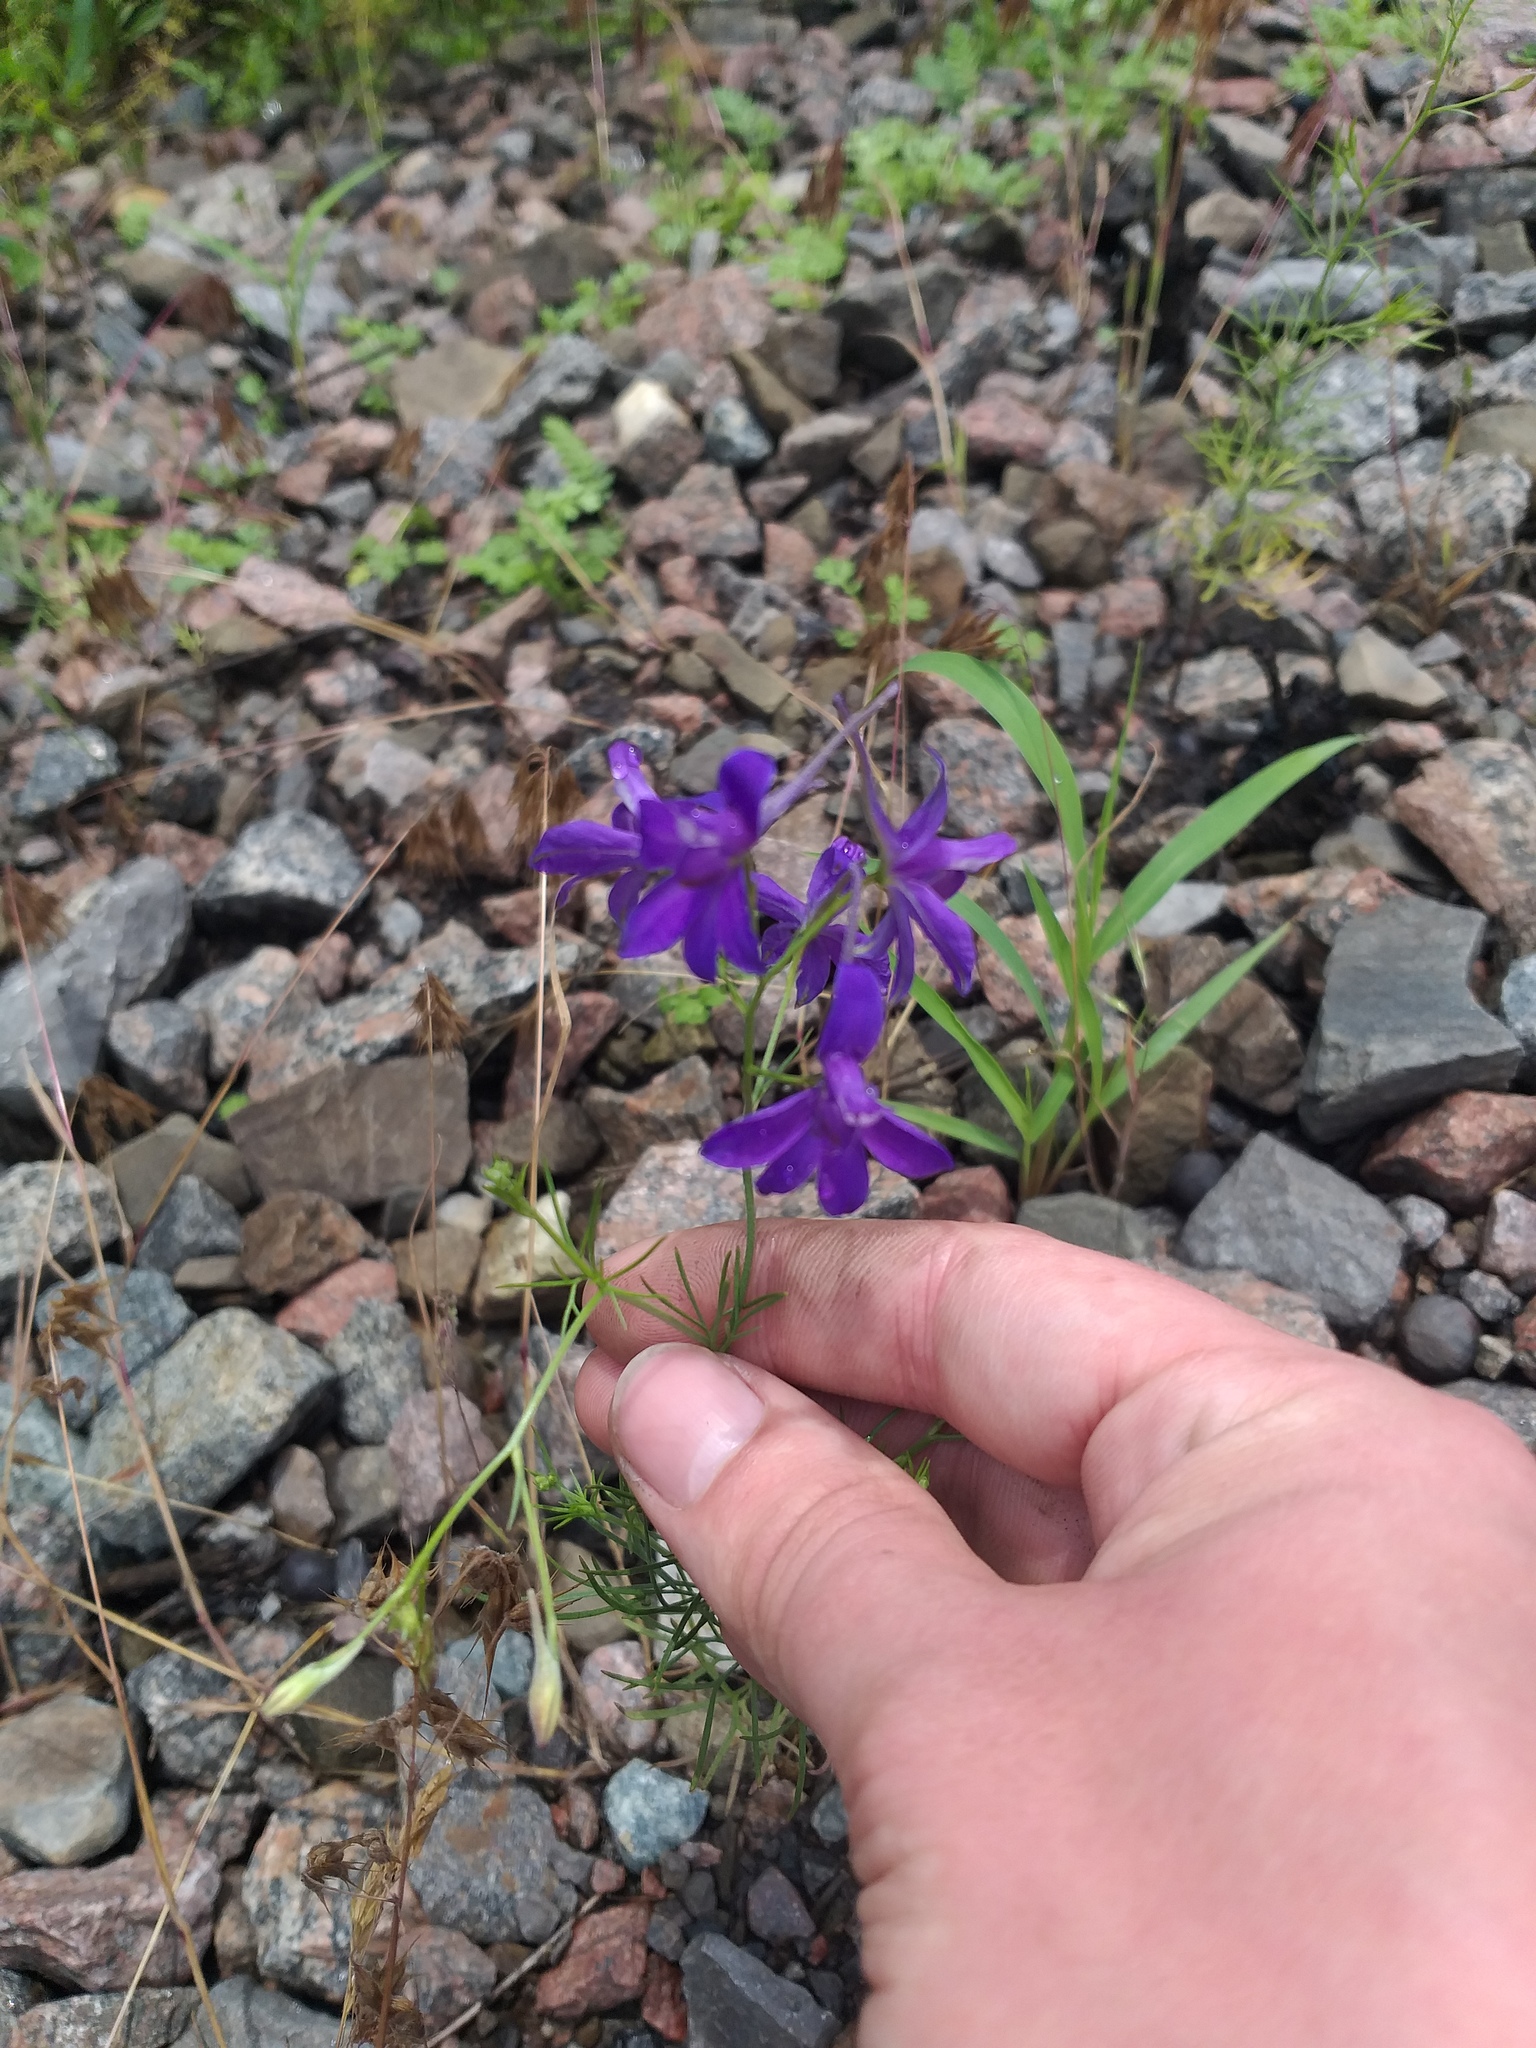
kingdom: Plantae
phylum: Tracheophyta
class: Magnoliopsida
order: Ranunculales
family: Ranunculaceae
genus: Delphinium
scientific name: Delphinium consolida
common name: Branching larkspur
